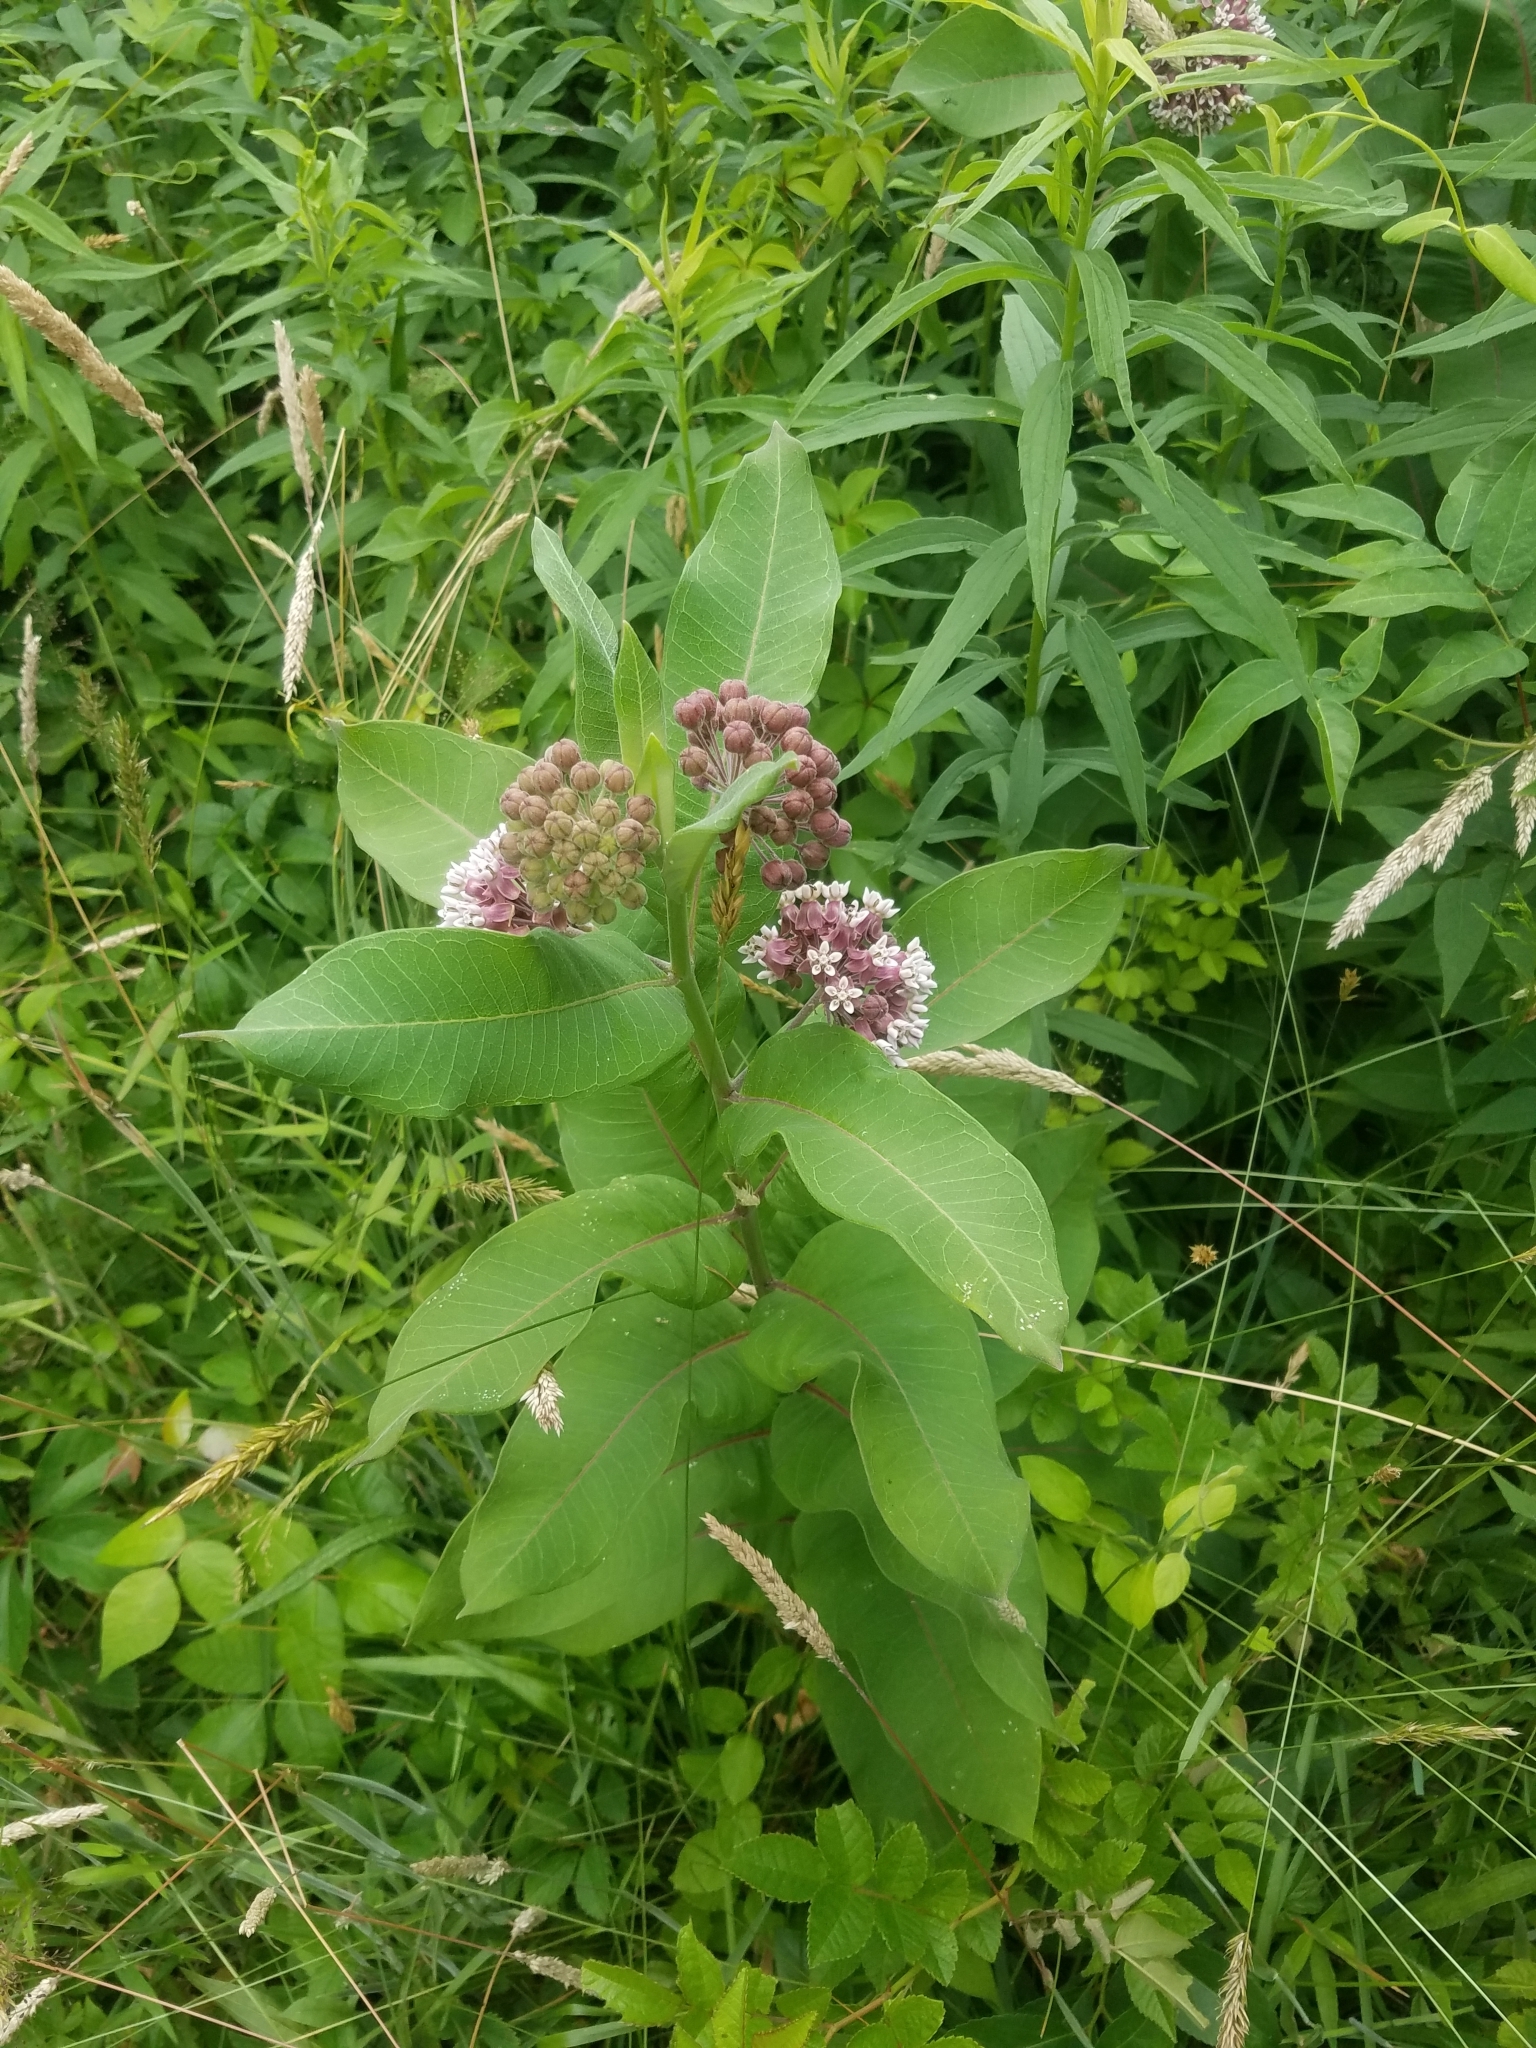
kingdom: Plantae
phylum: Tracheophyta
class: Magnoliopsida
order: Gentianales
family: Apocynaceae
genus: Asclepias
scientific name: Asclepias syriaca
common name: Common milkweed
